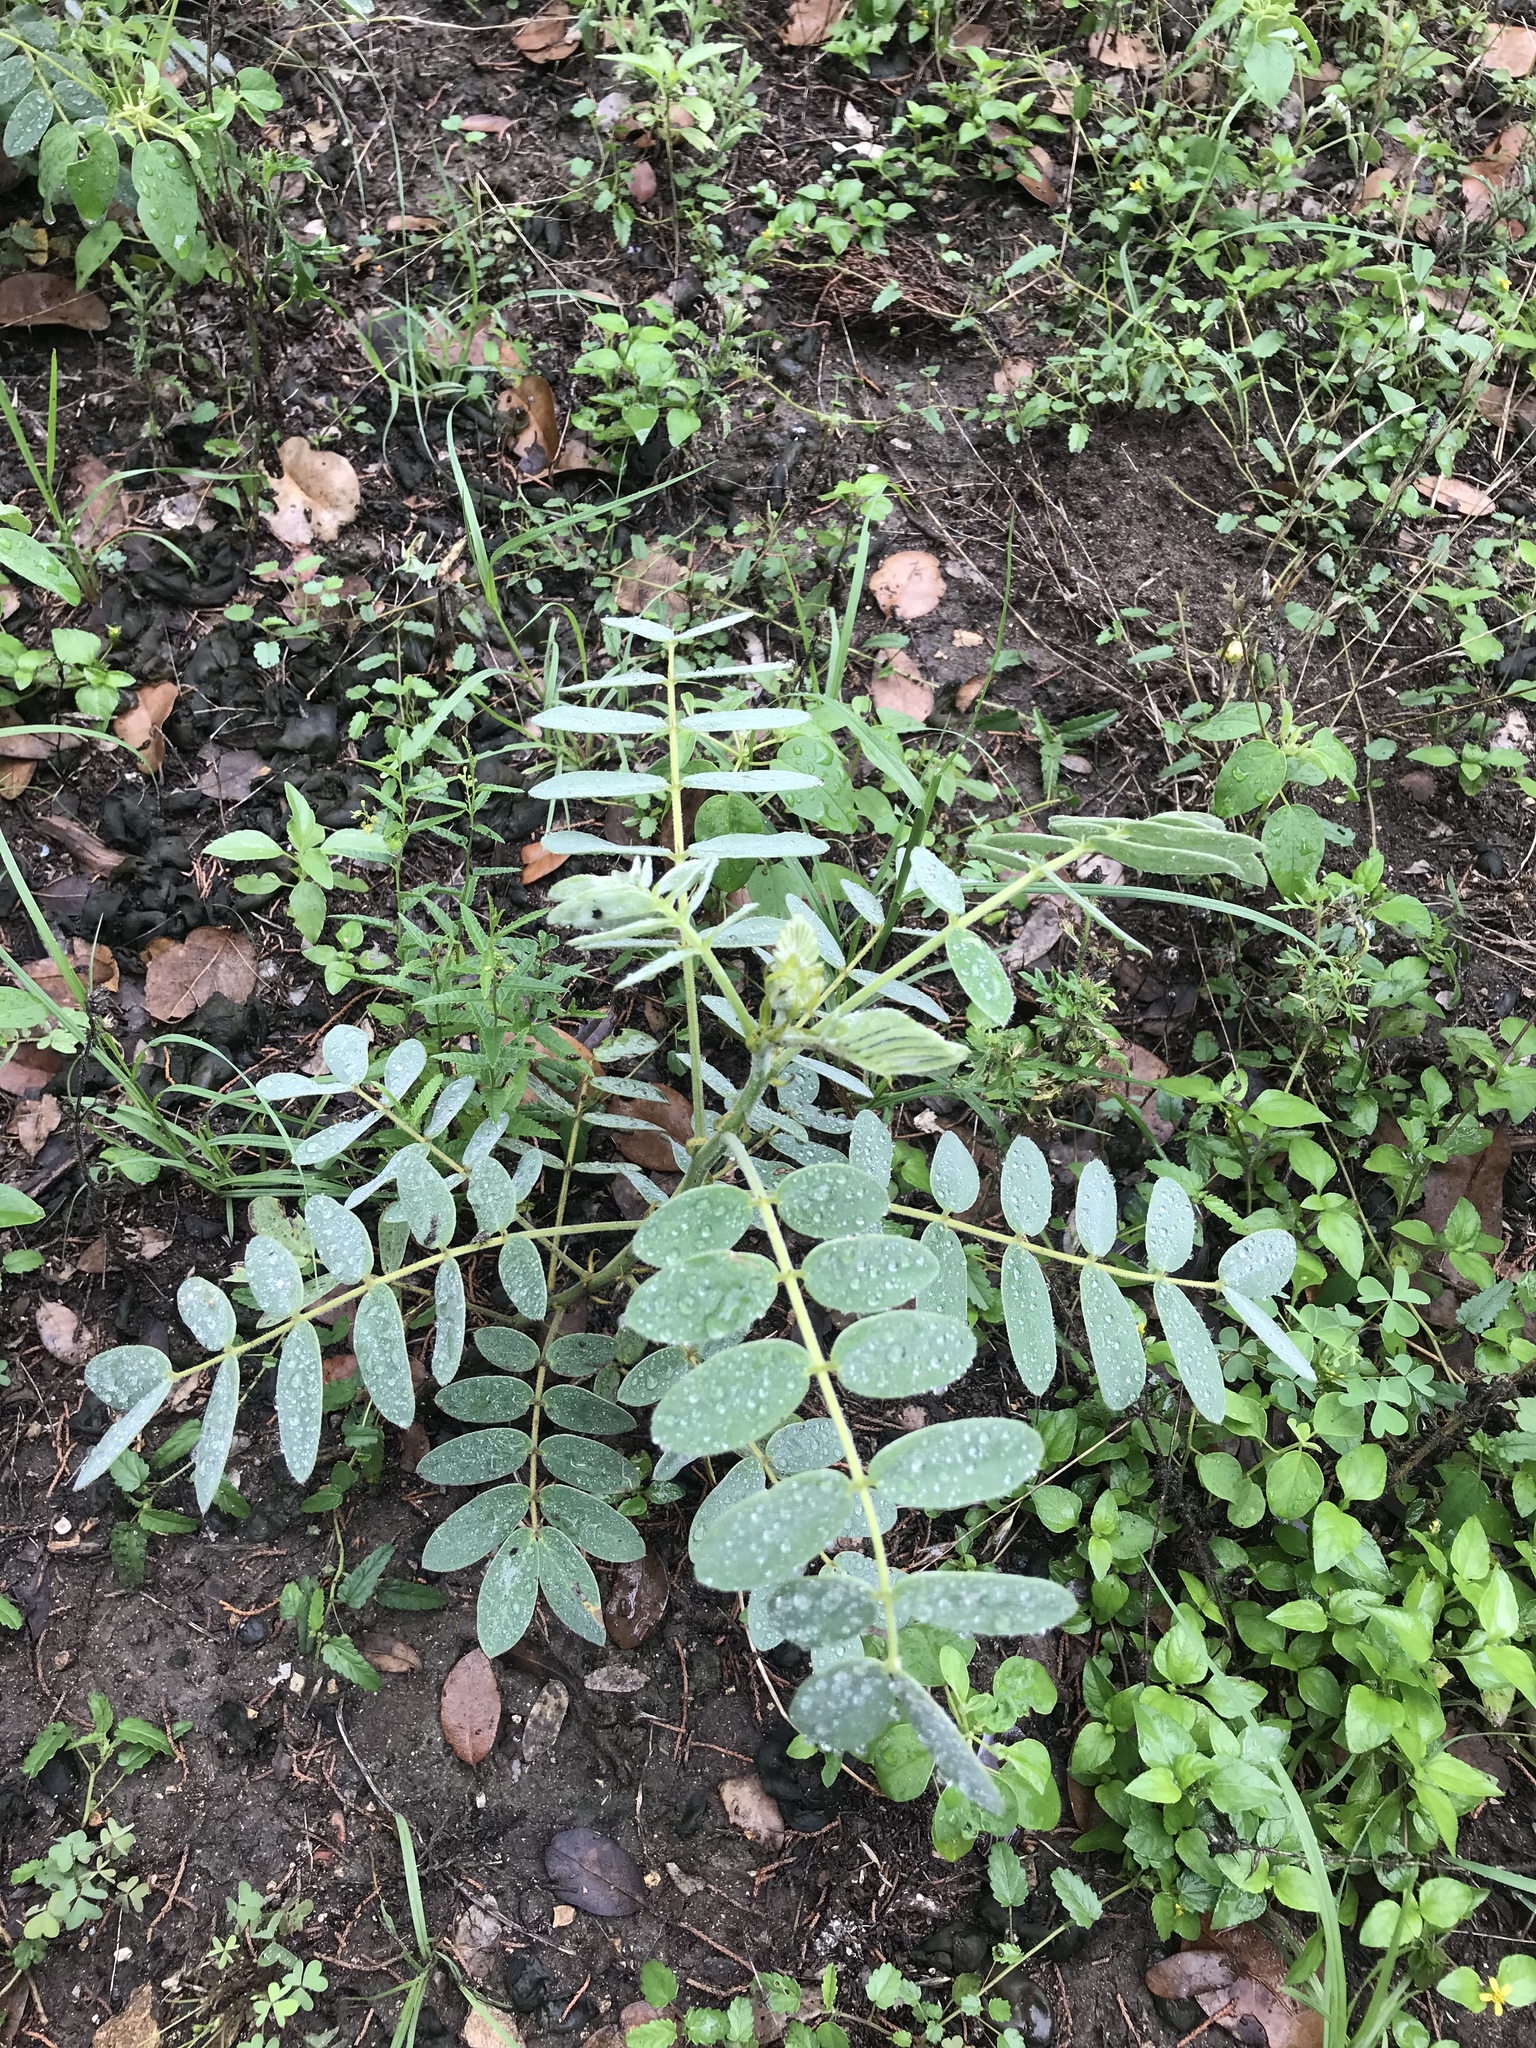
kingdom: Plantae
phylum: Tracheophyta
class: Magnoliopsida
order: Fabales
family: Fabaceae
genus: Senna
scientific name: Senna lindheimeriana
